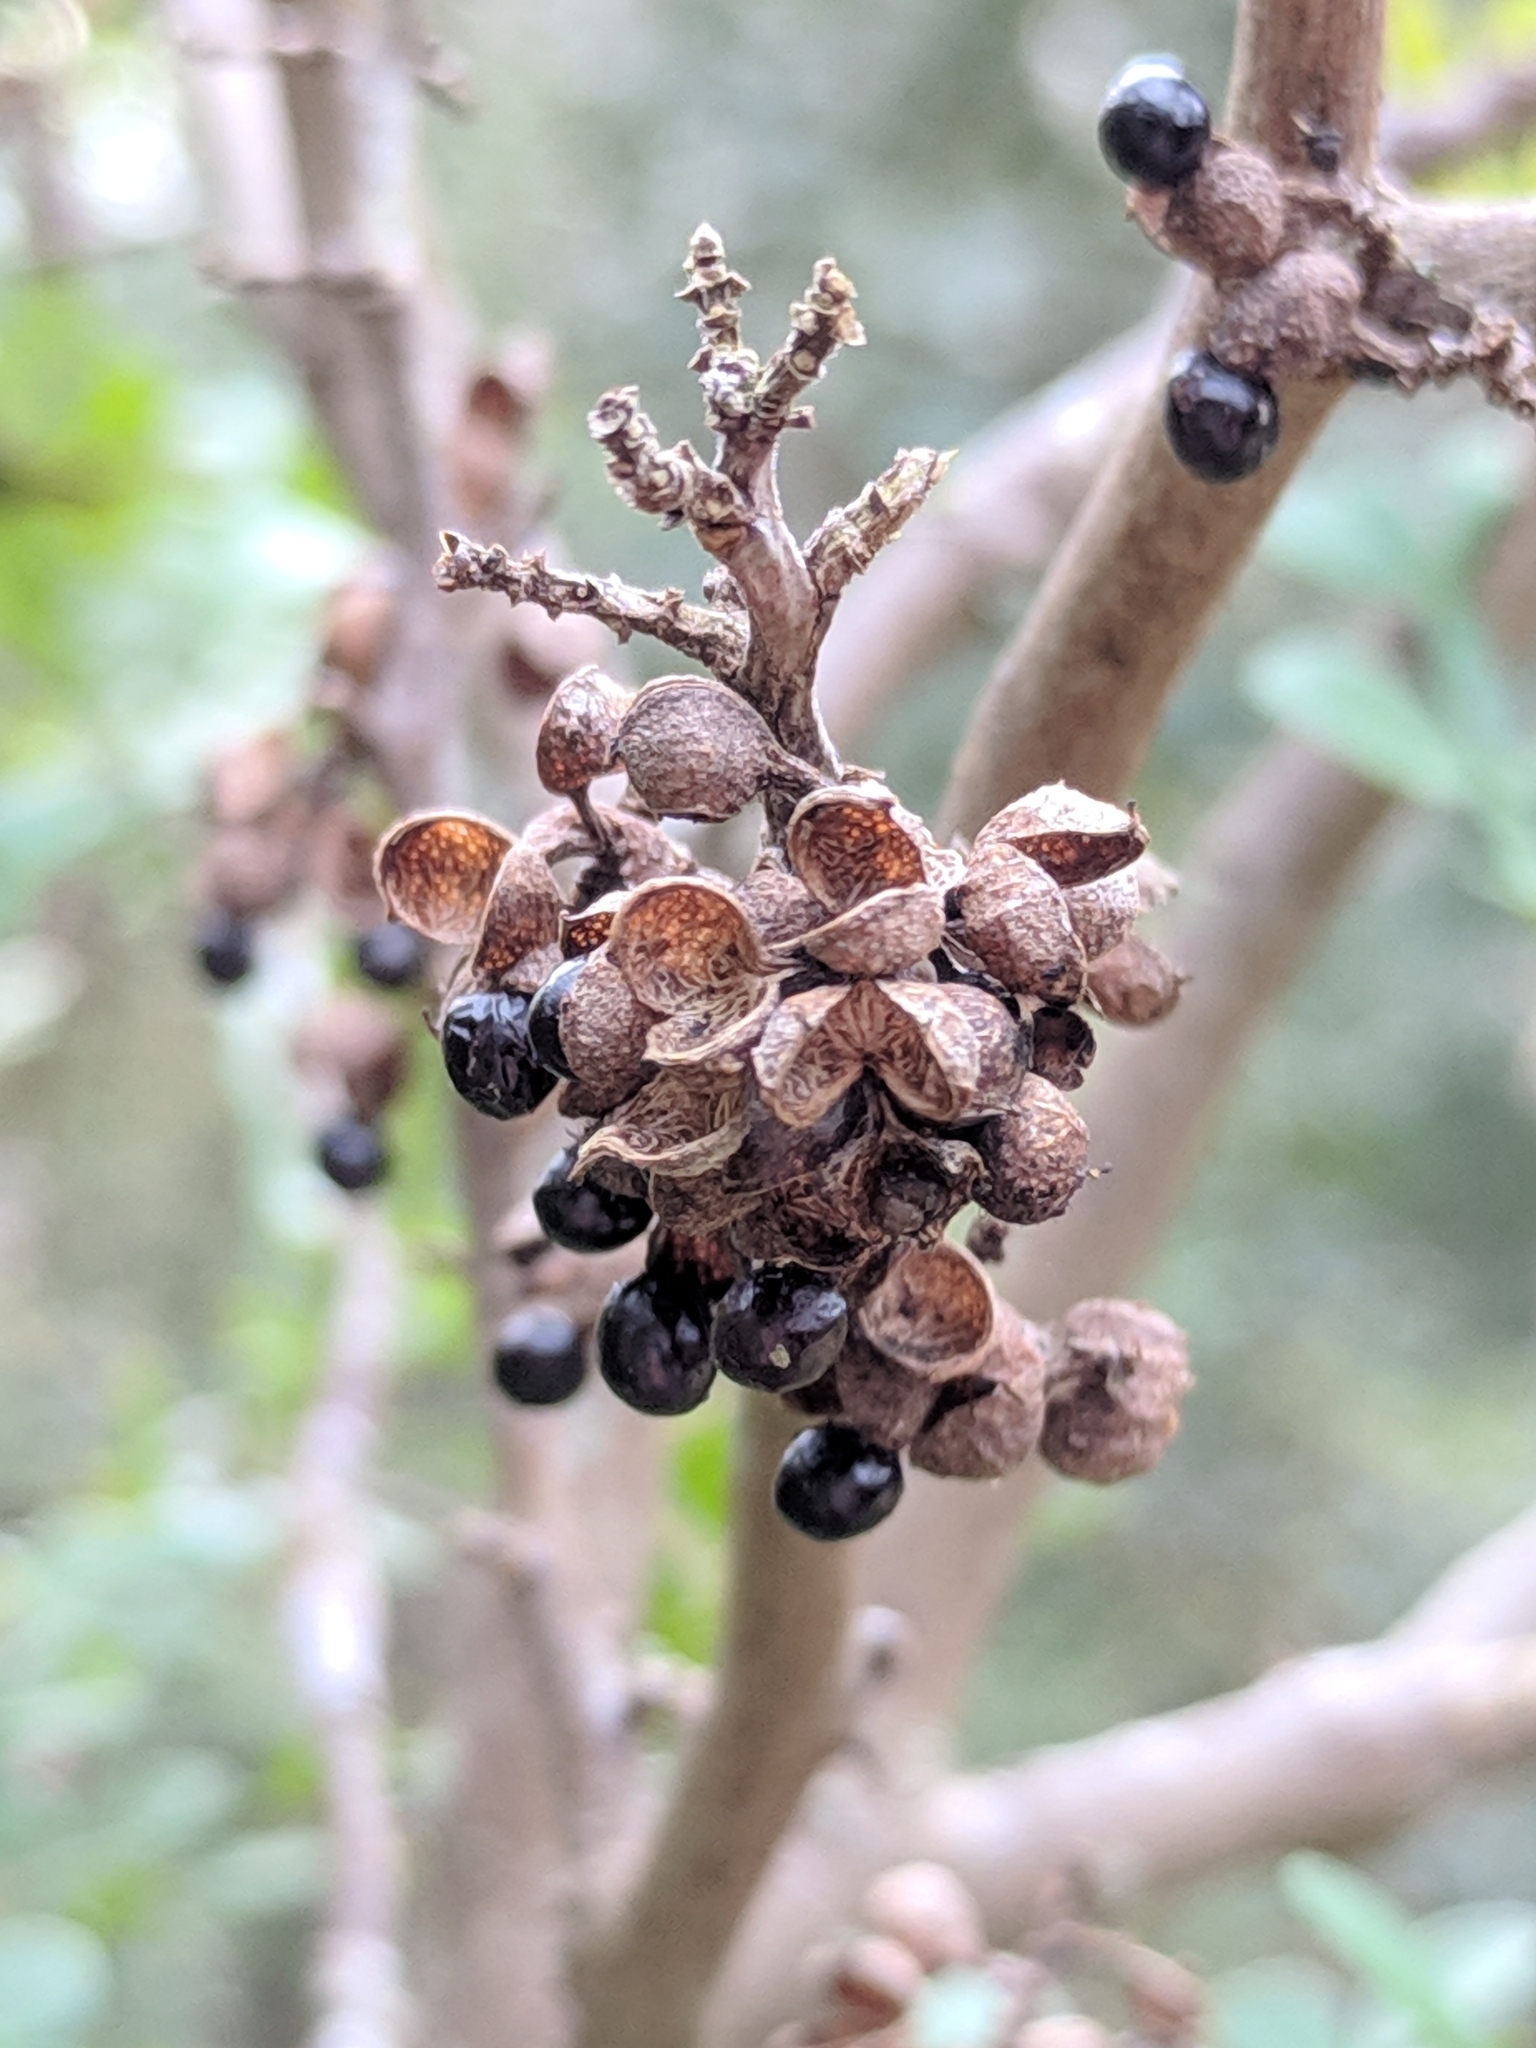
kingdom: Plantae
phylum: Tracheophyta
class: Magnoliopsida
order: Sapindales
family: Rutaceae
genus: Zanthoxylum
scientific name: Zanthoxylum fagara
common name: Lime prickly-ash
